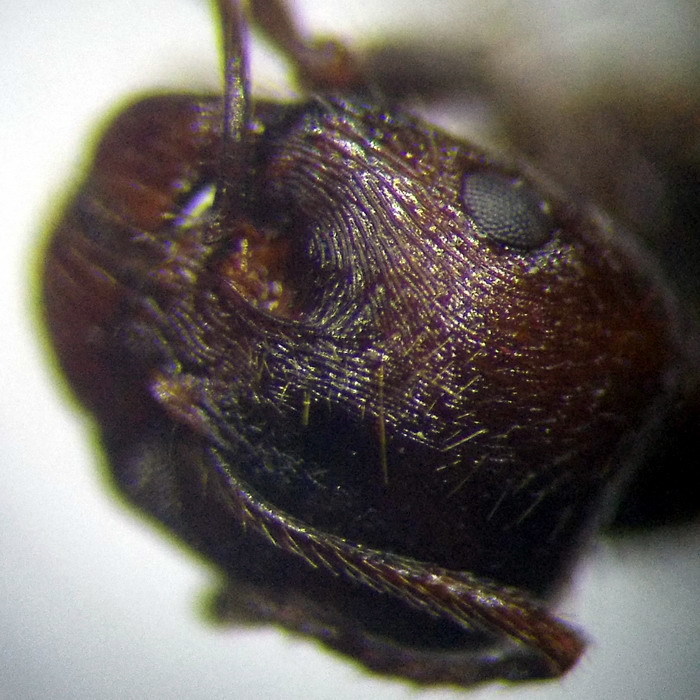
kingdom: Animalia
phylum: Arthropoda
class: Insecta
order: Hymenoptera
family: Formicidae
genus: Messor
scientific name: Messor structor
